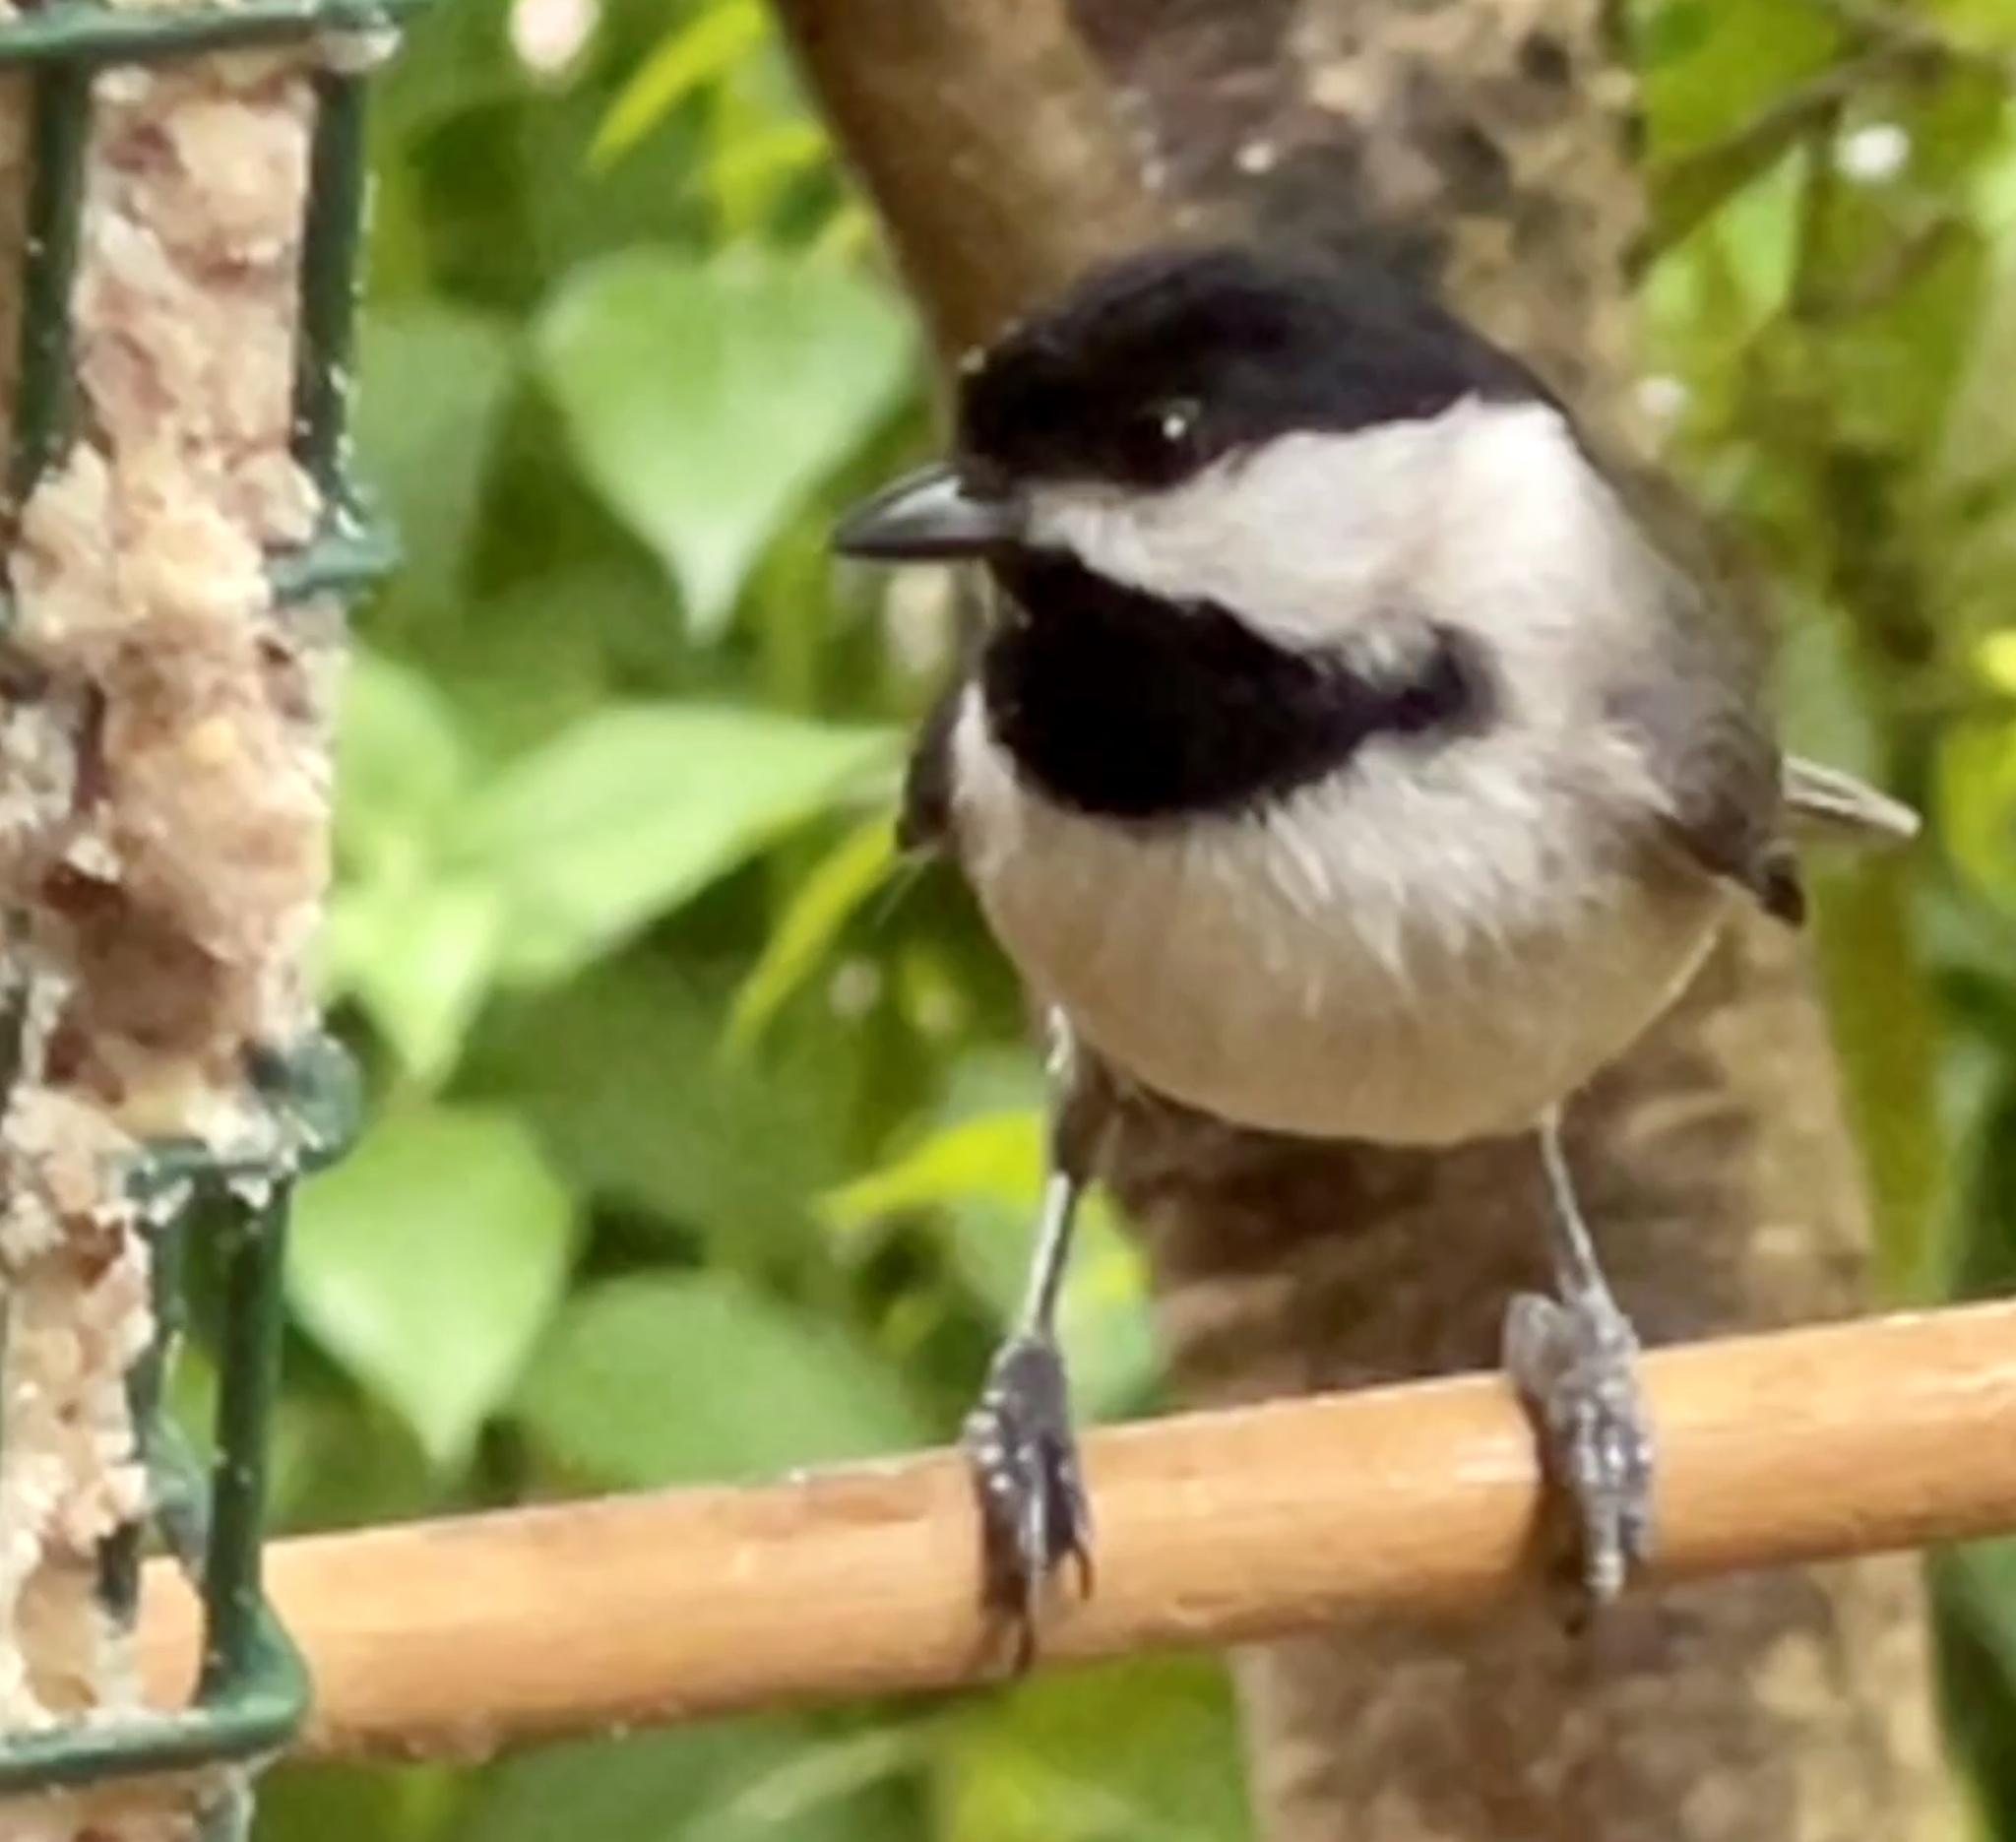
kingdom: Animalia
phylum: Chordata
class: Aves
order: Passeriformes
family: Paridae
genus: Poecile
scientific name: Poecile carolinensis
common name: Carolina chickadee
